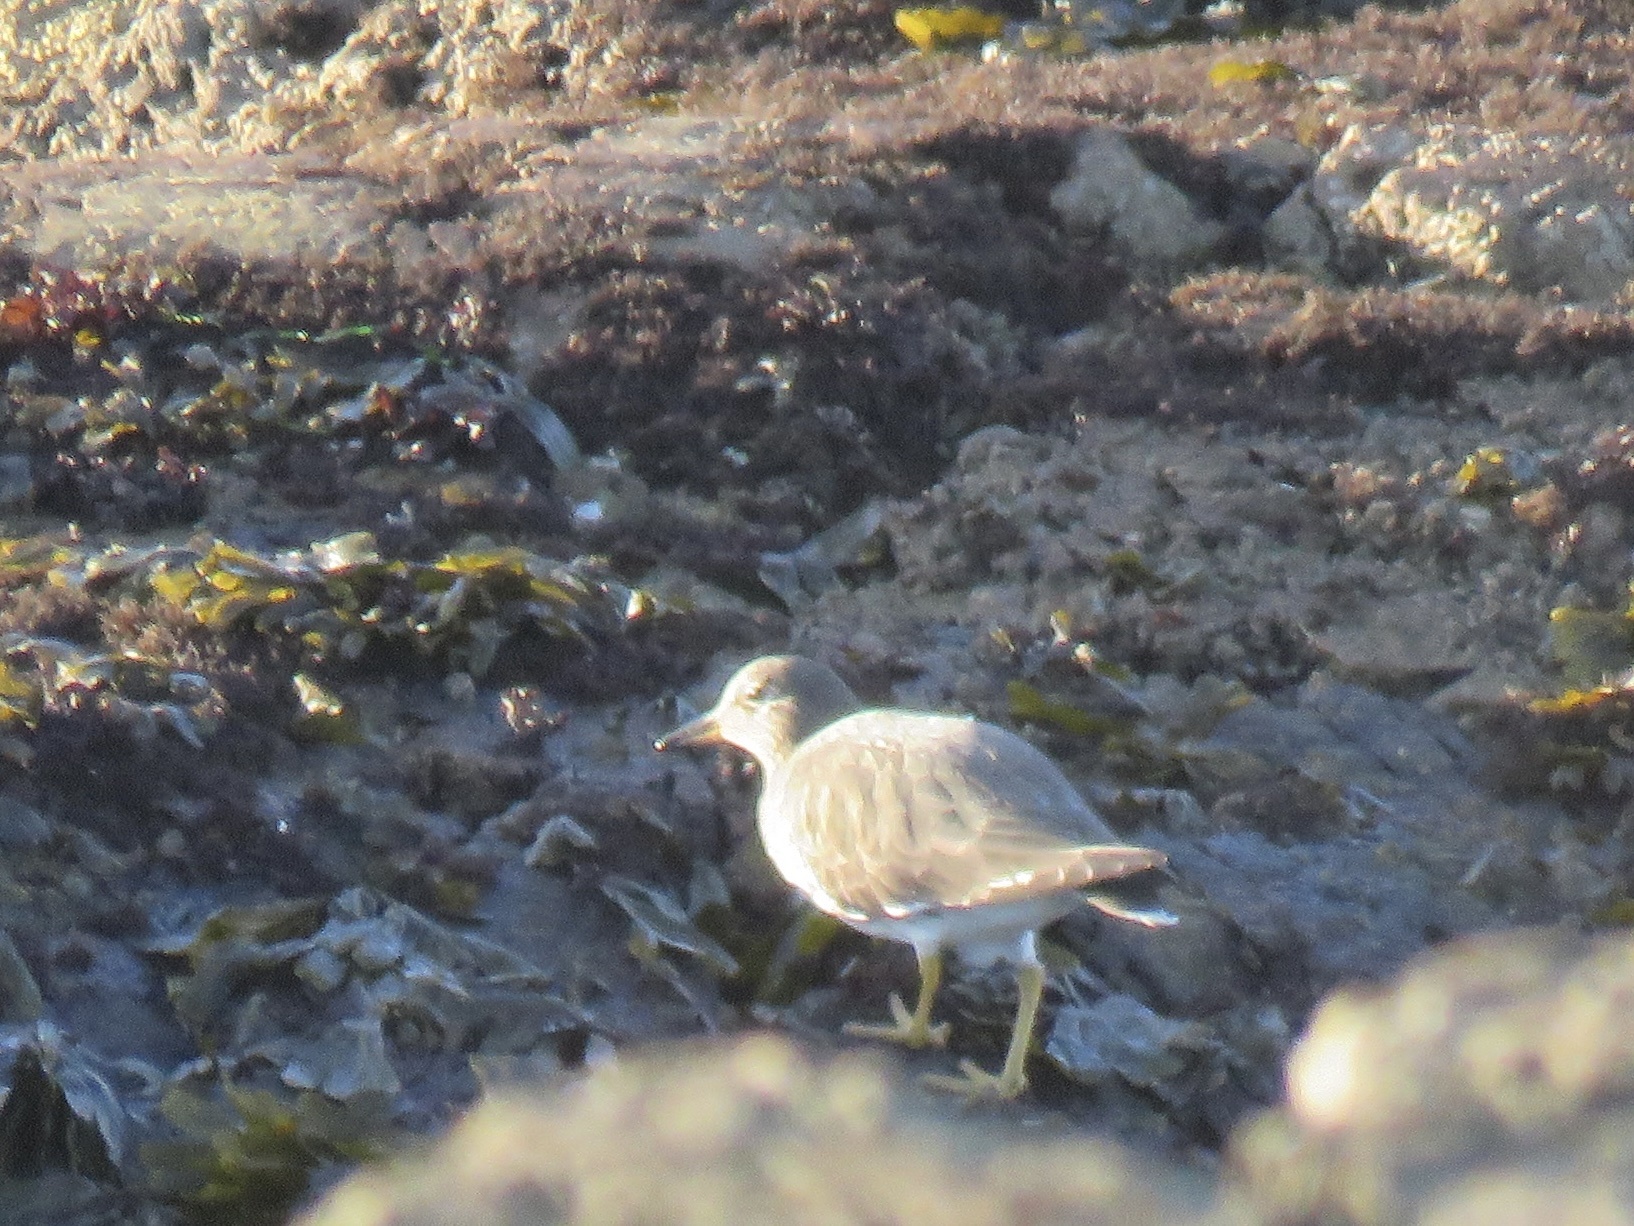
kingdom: Animalia
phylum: Chordata
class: Aves
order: Charadriiformes
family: Scolopacidae
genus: Calidris
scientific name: Calidris virgata
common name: Surfbird
